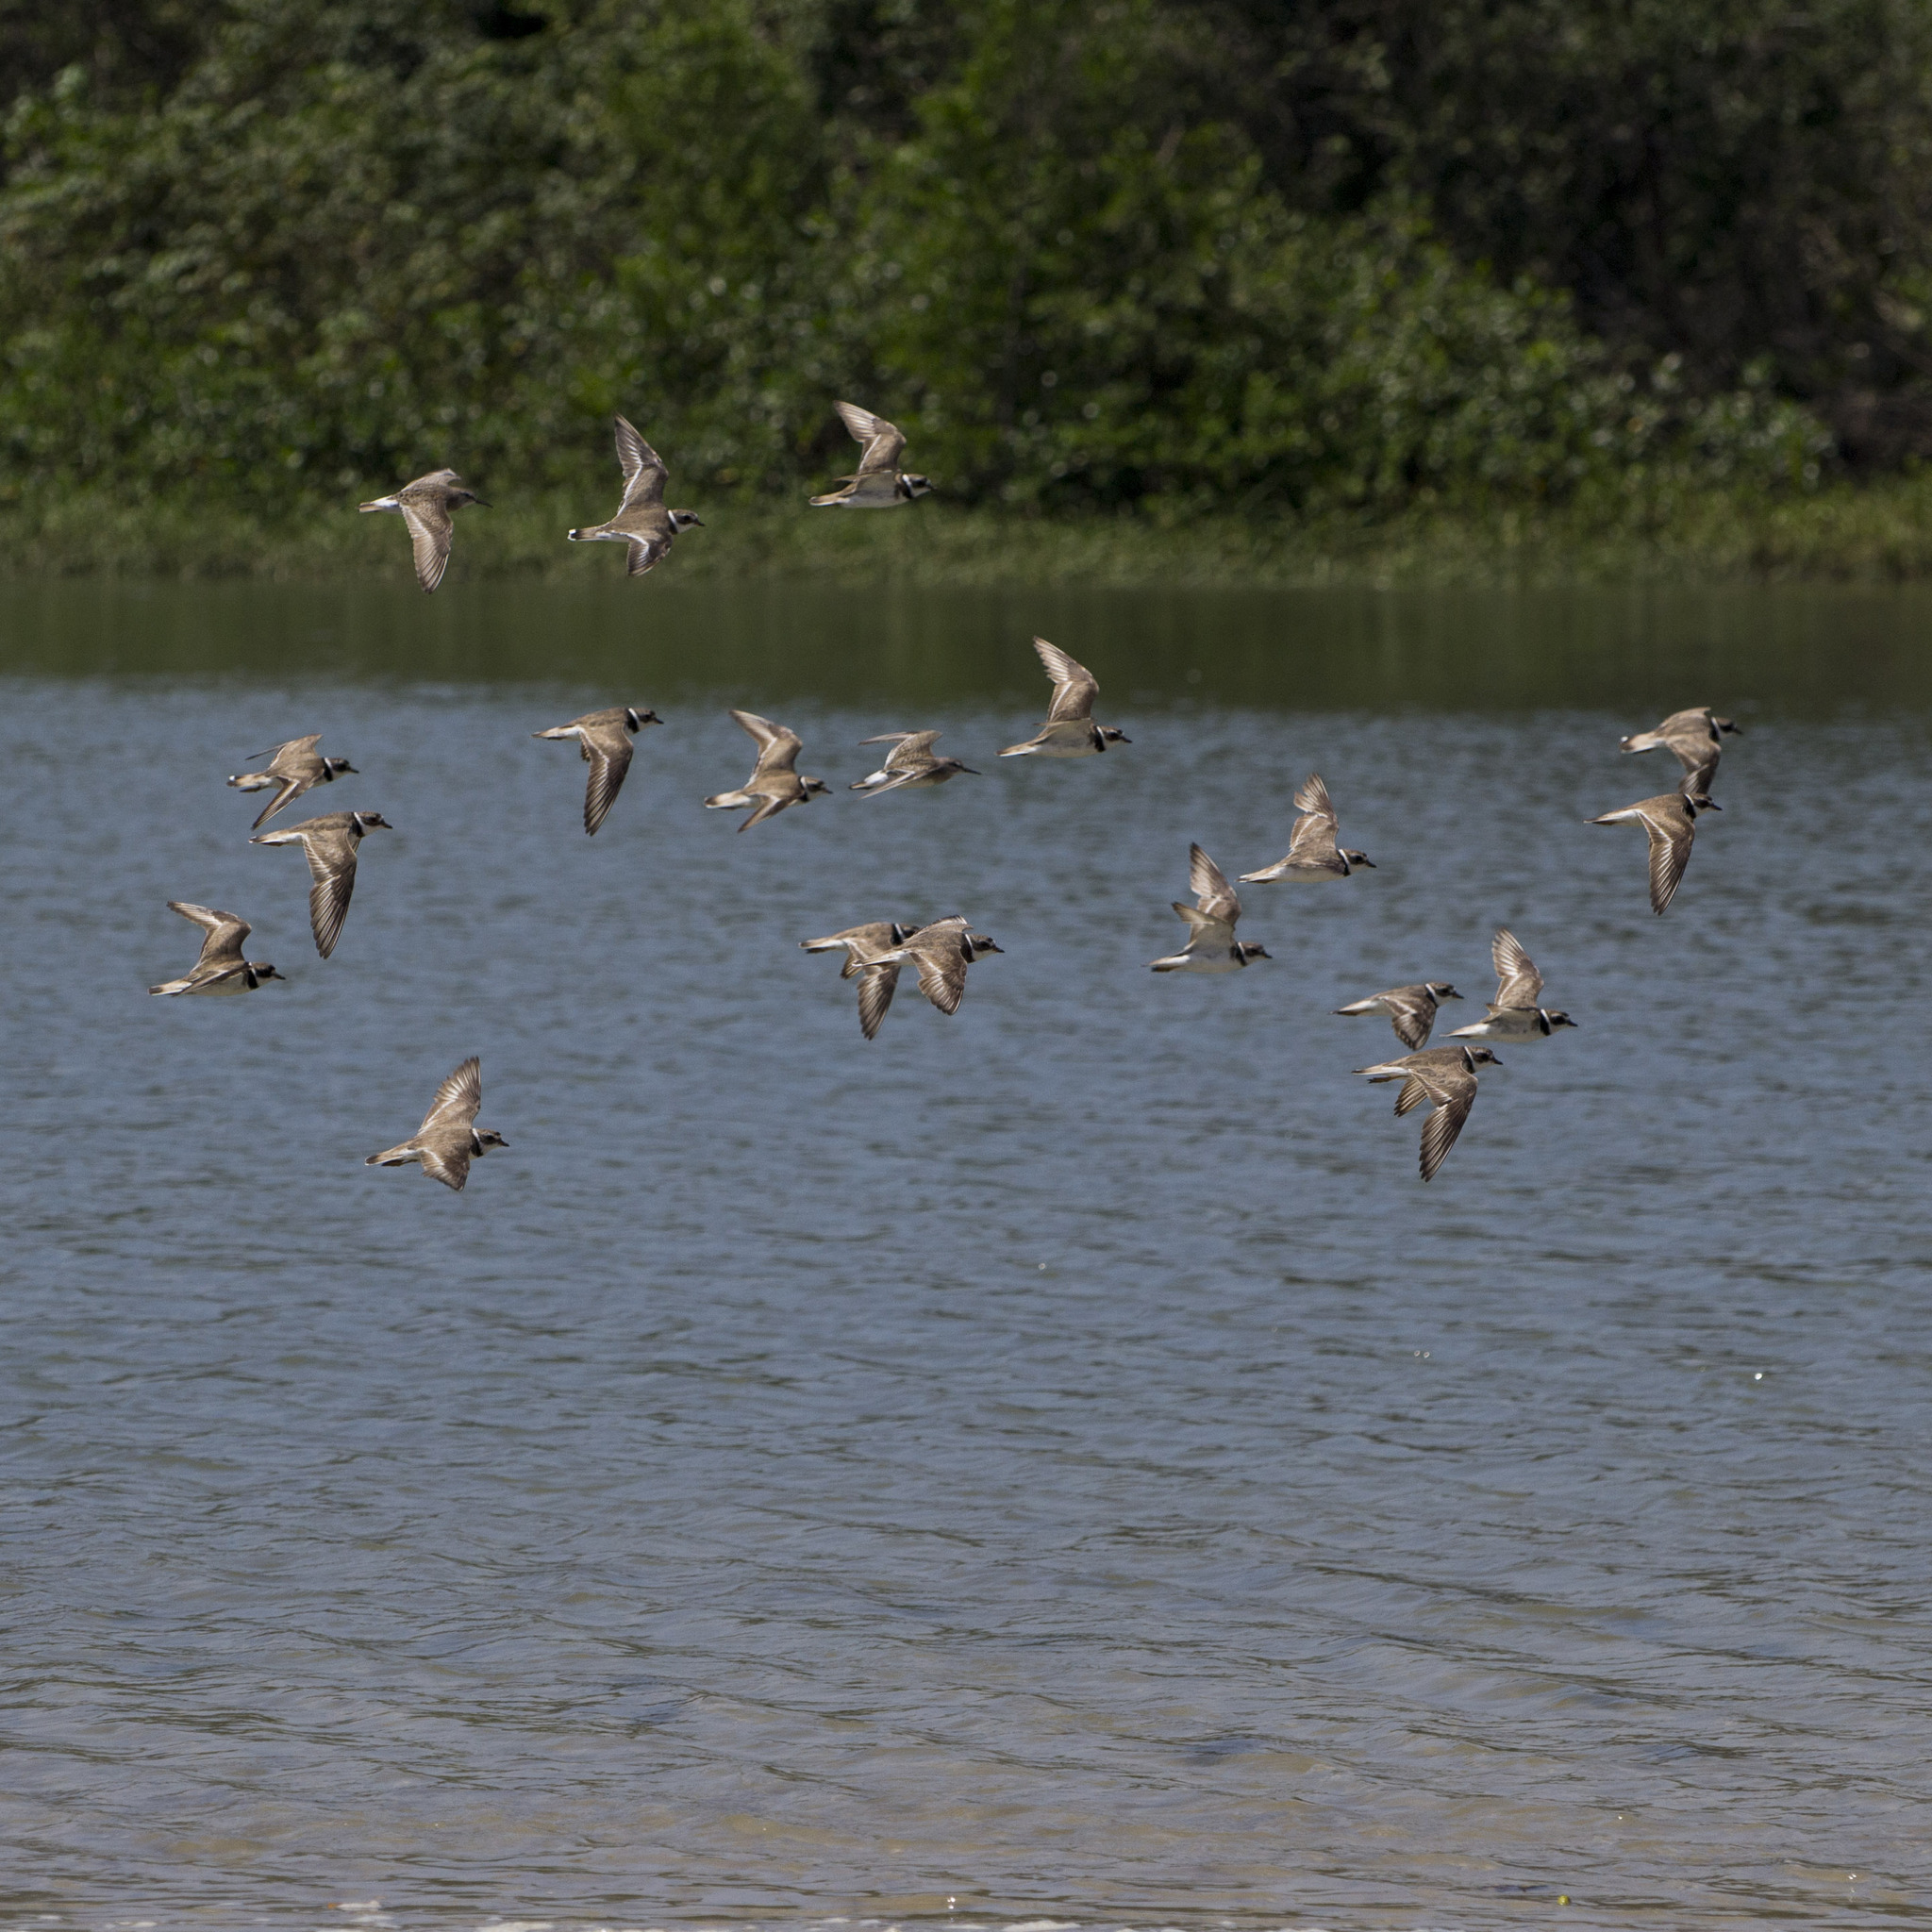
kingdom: Animalia
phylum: Chordata
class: Aves
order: Charadriiformes
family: Charadriidae
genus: Charadrius
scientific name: Charadrius semipalmatus
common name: Semipalmated plover
